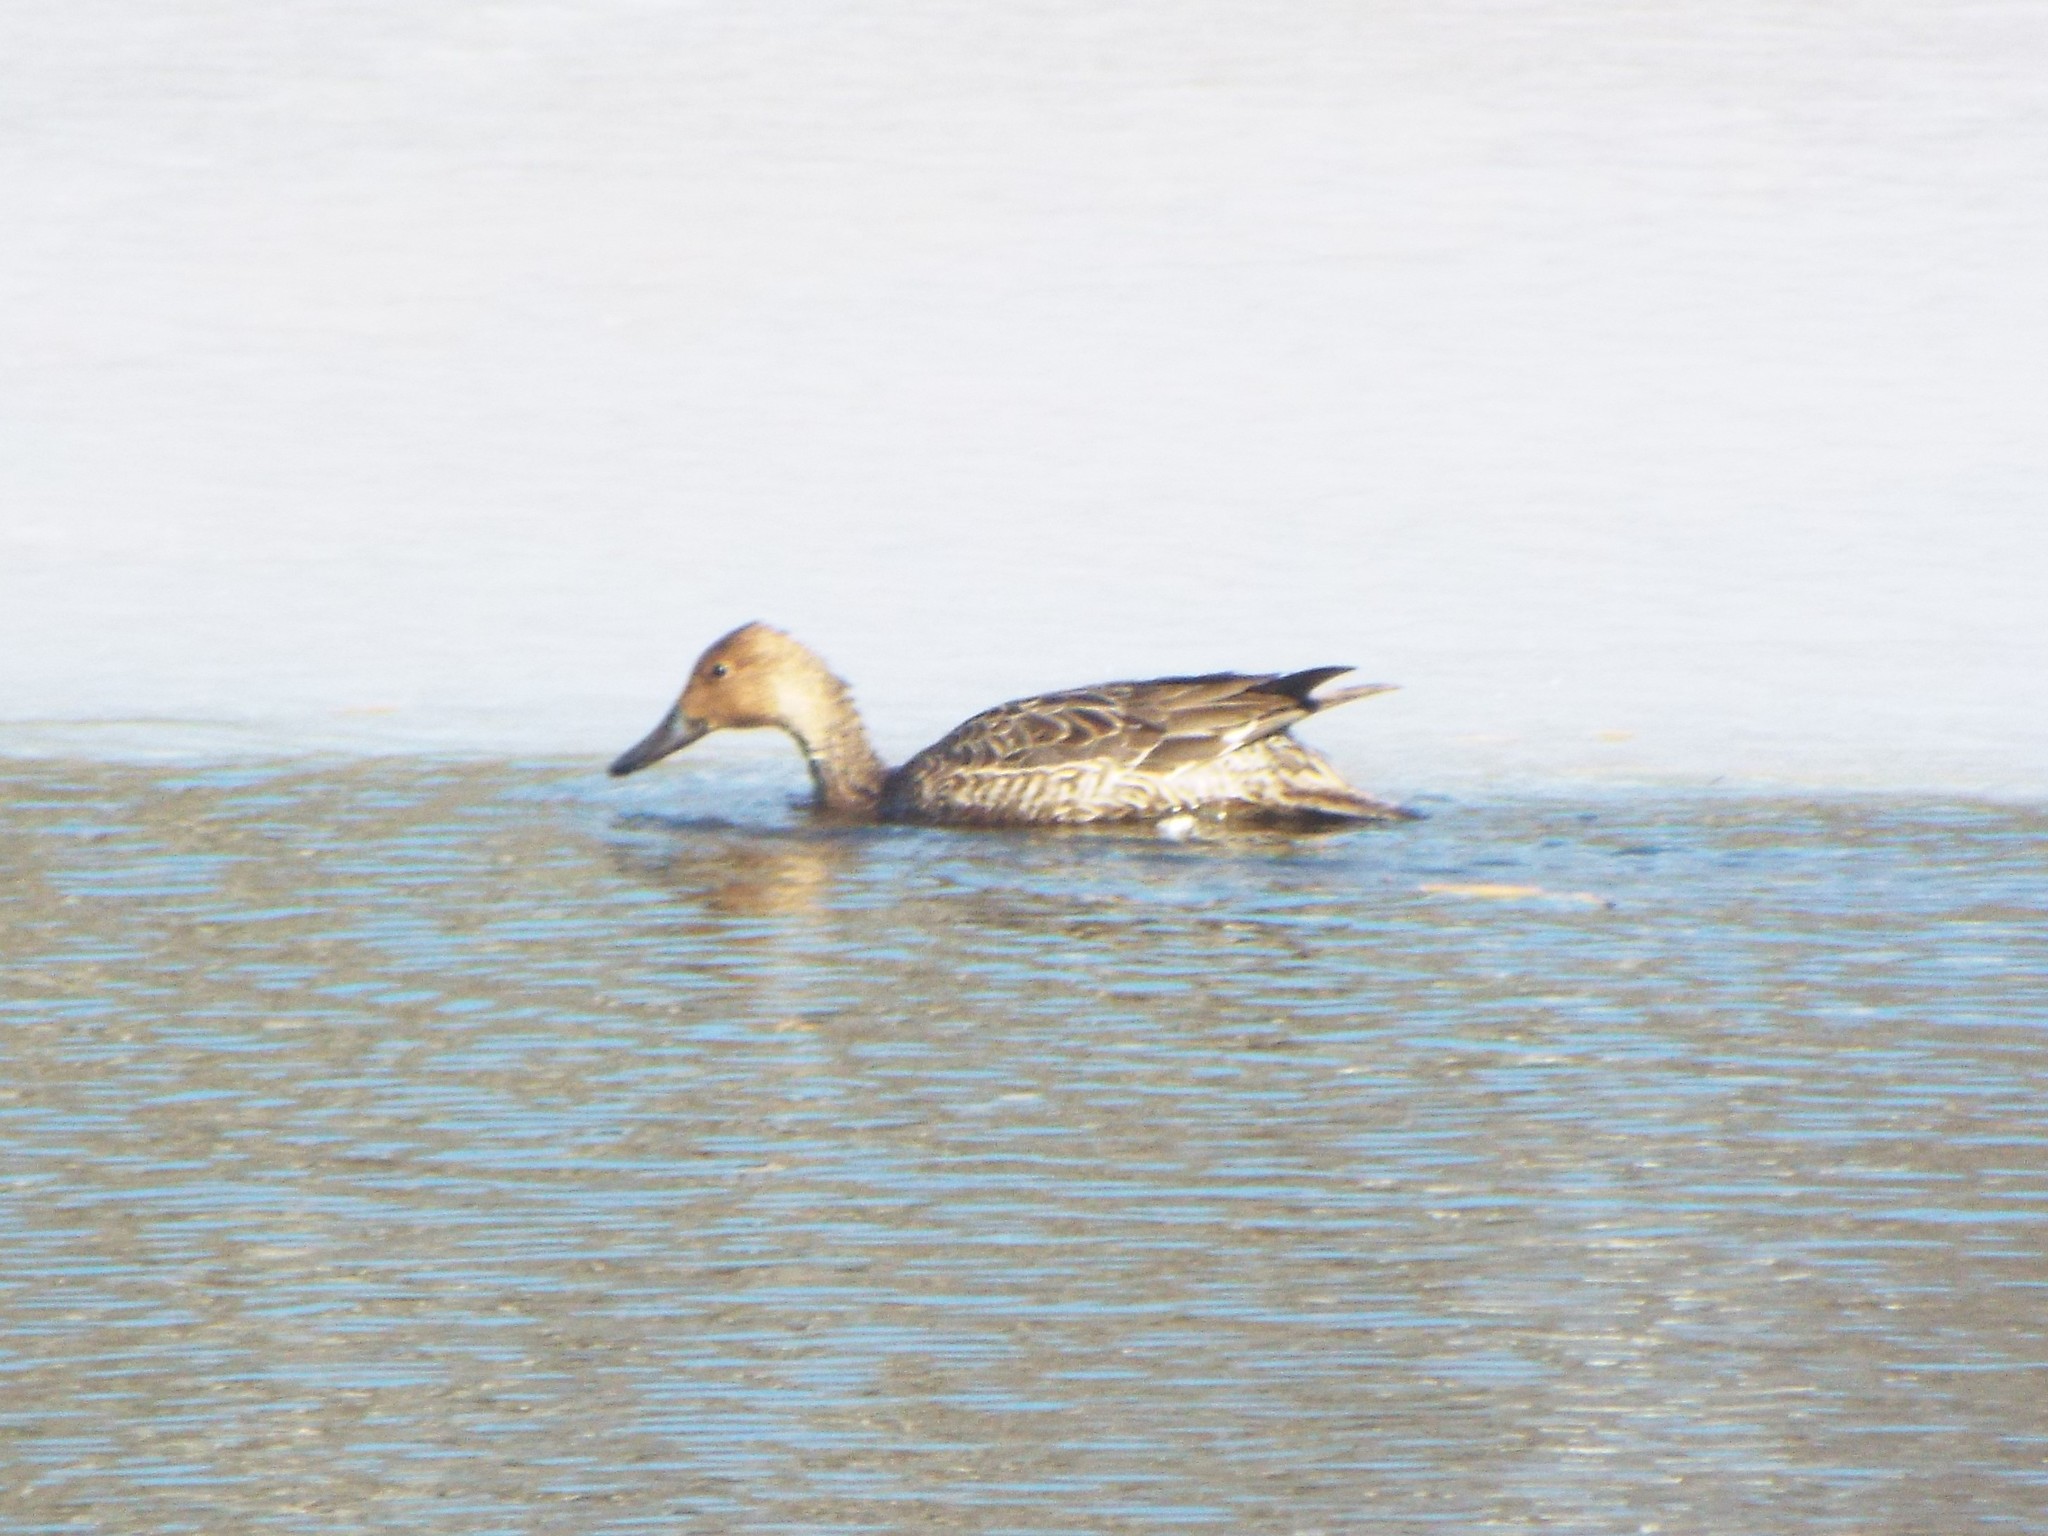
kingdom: Animalia
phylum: Chordata
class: Aves
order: Anseriformes
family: Anatidae
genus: Anas
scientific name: Anas acuta
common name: Northern pintail
